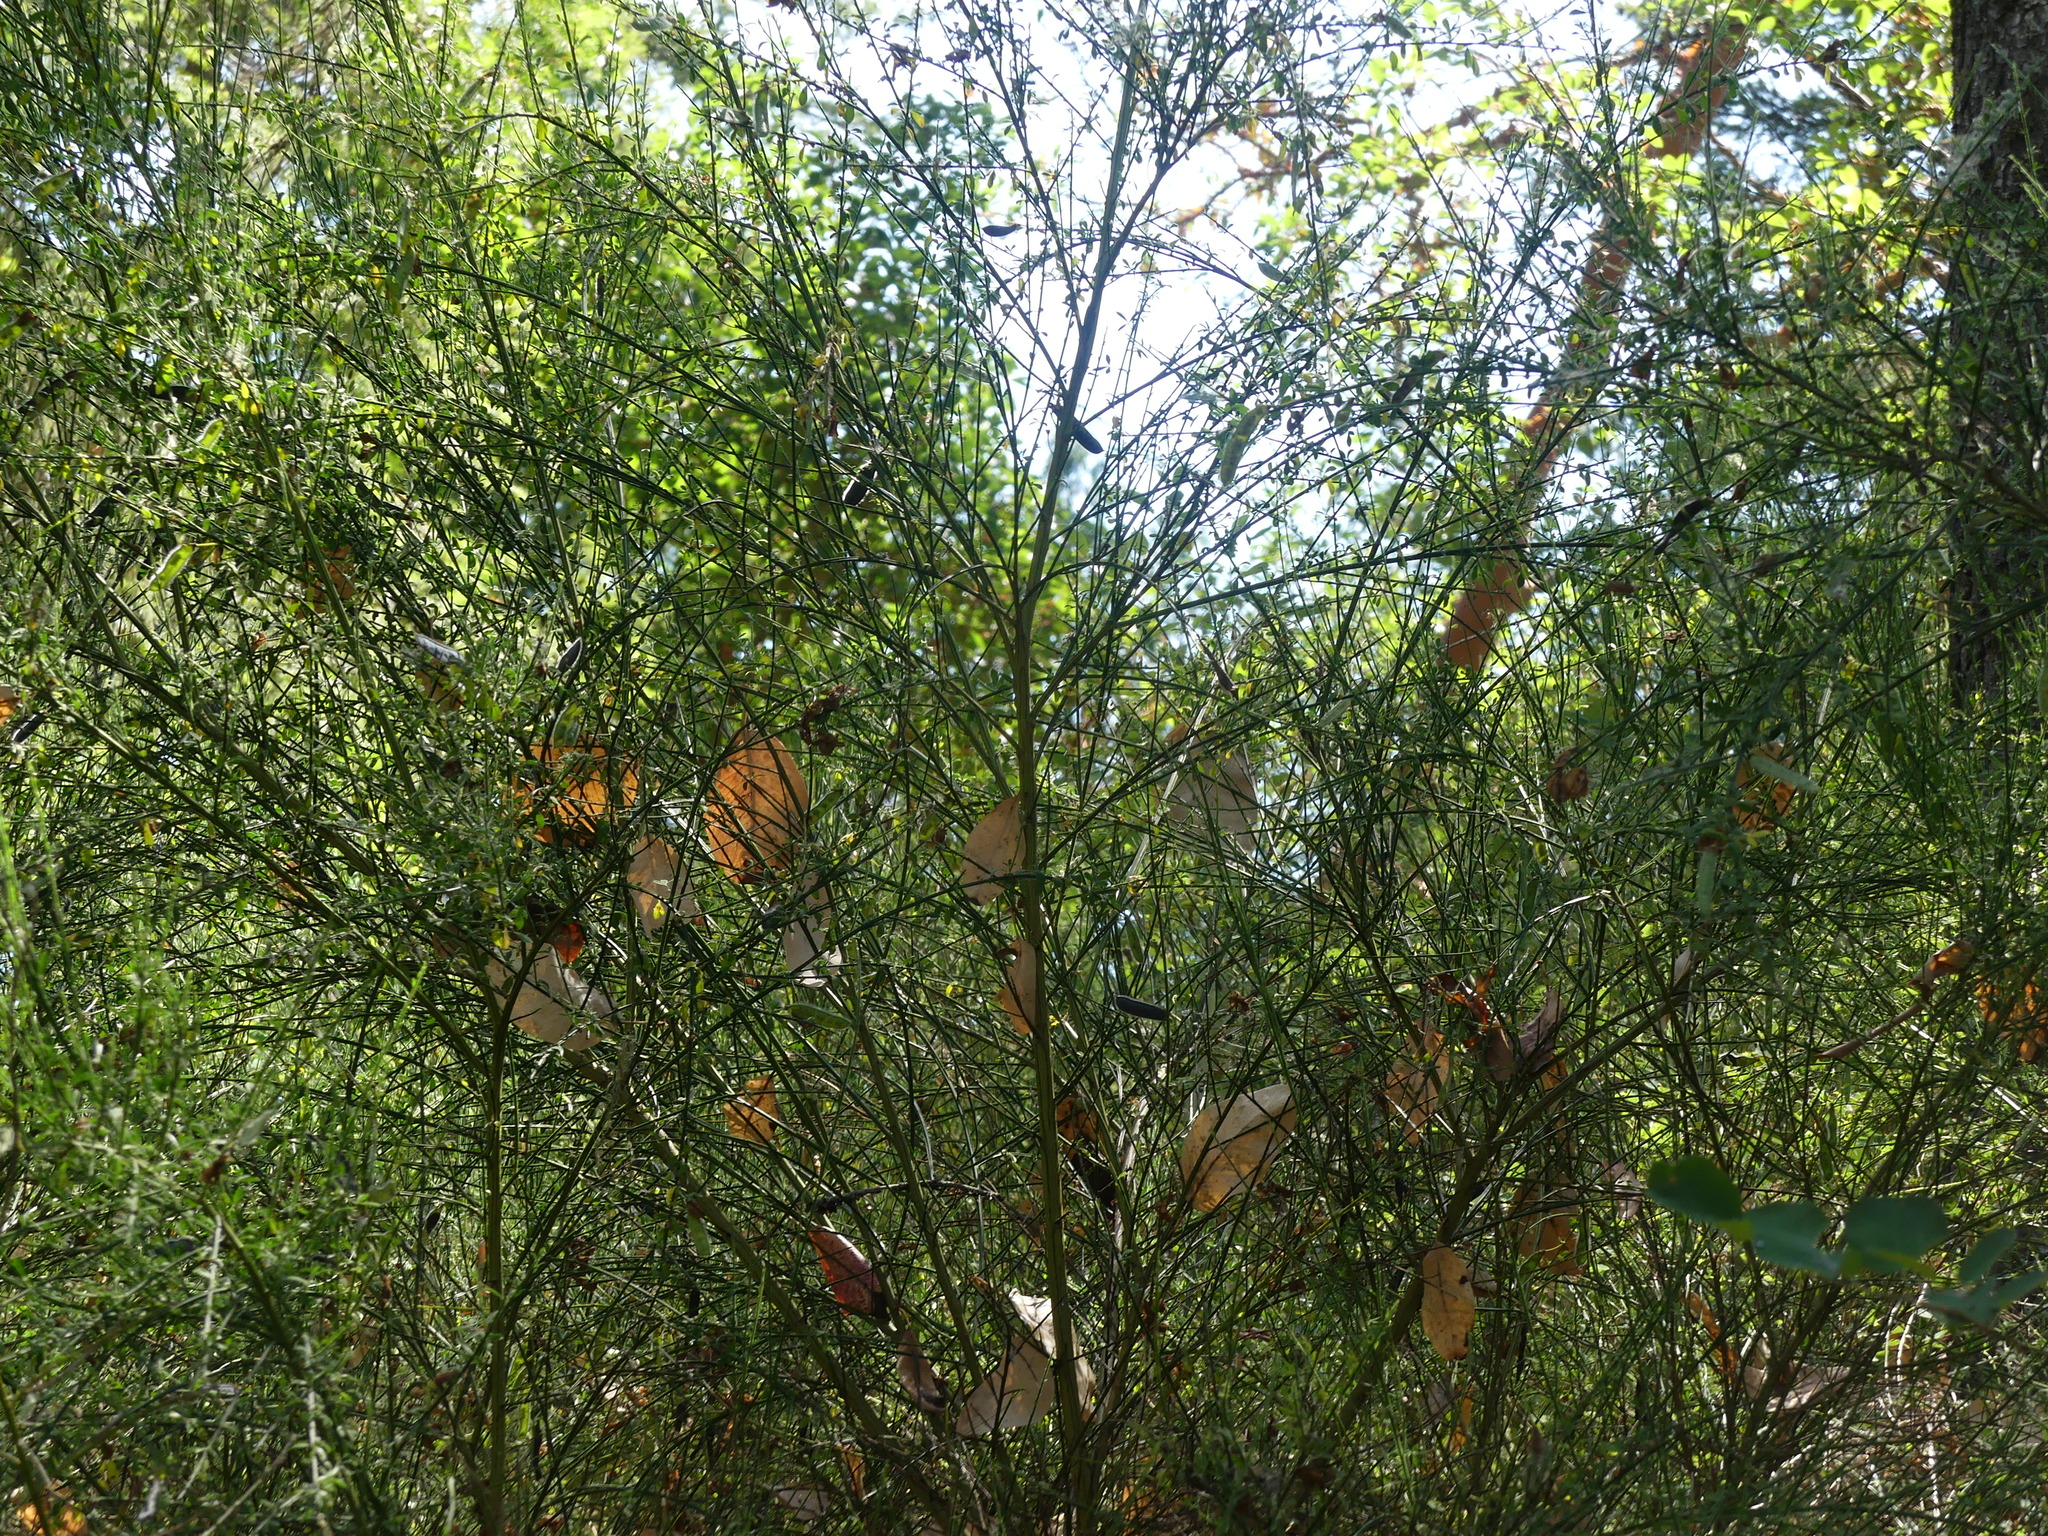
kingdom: Plantae
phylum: Tracheophyta
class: Magnoliopsida
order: Fabales
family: Fabaceae
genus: Cytisus
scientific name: Cytisus scoparius
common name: Scotch broom
